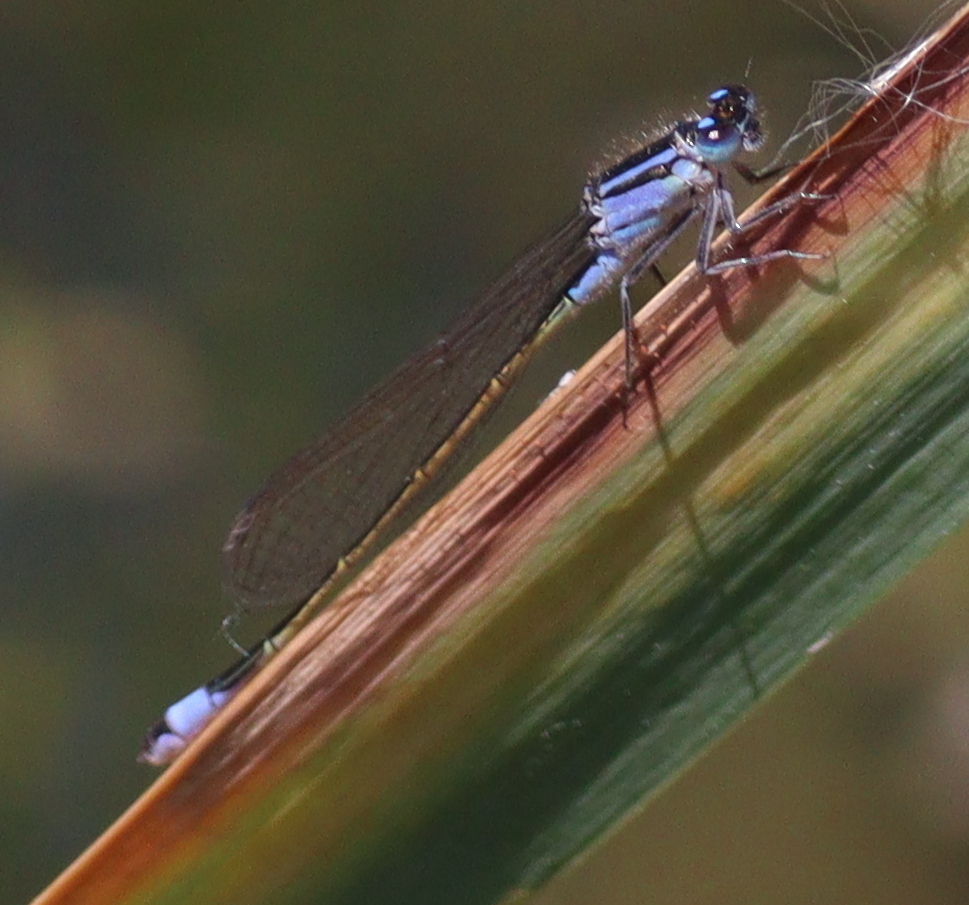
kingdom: Animalia
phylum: Arthropoda
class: Insecta
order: Odonata
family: Coenagrionidae
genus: Ischnura
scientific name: Ischnura elegans
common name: Blue-tailed damselfly
